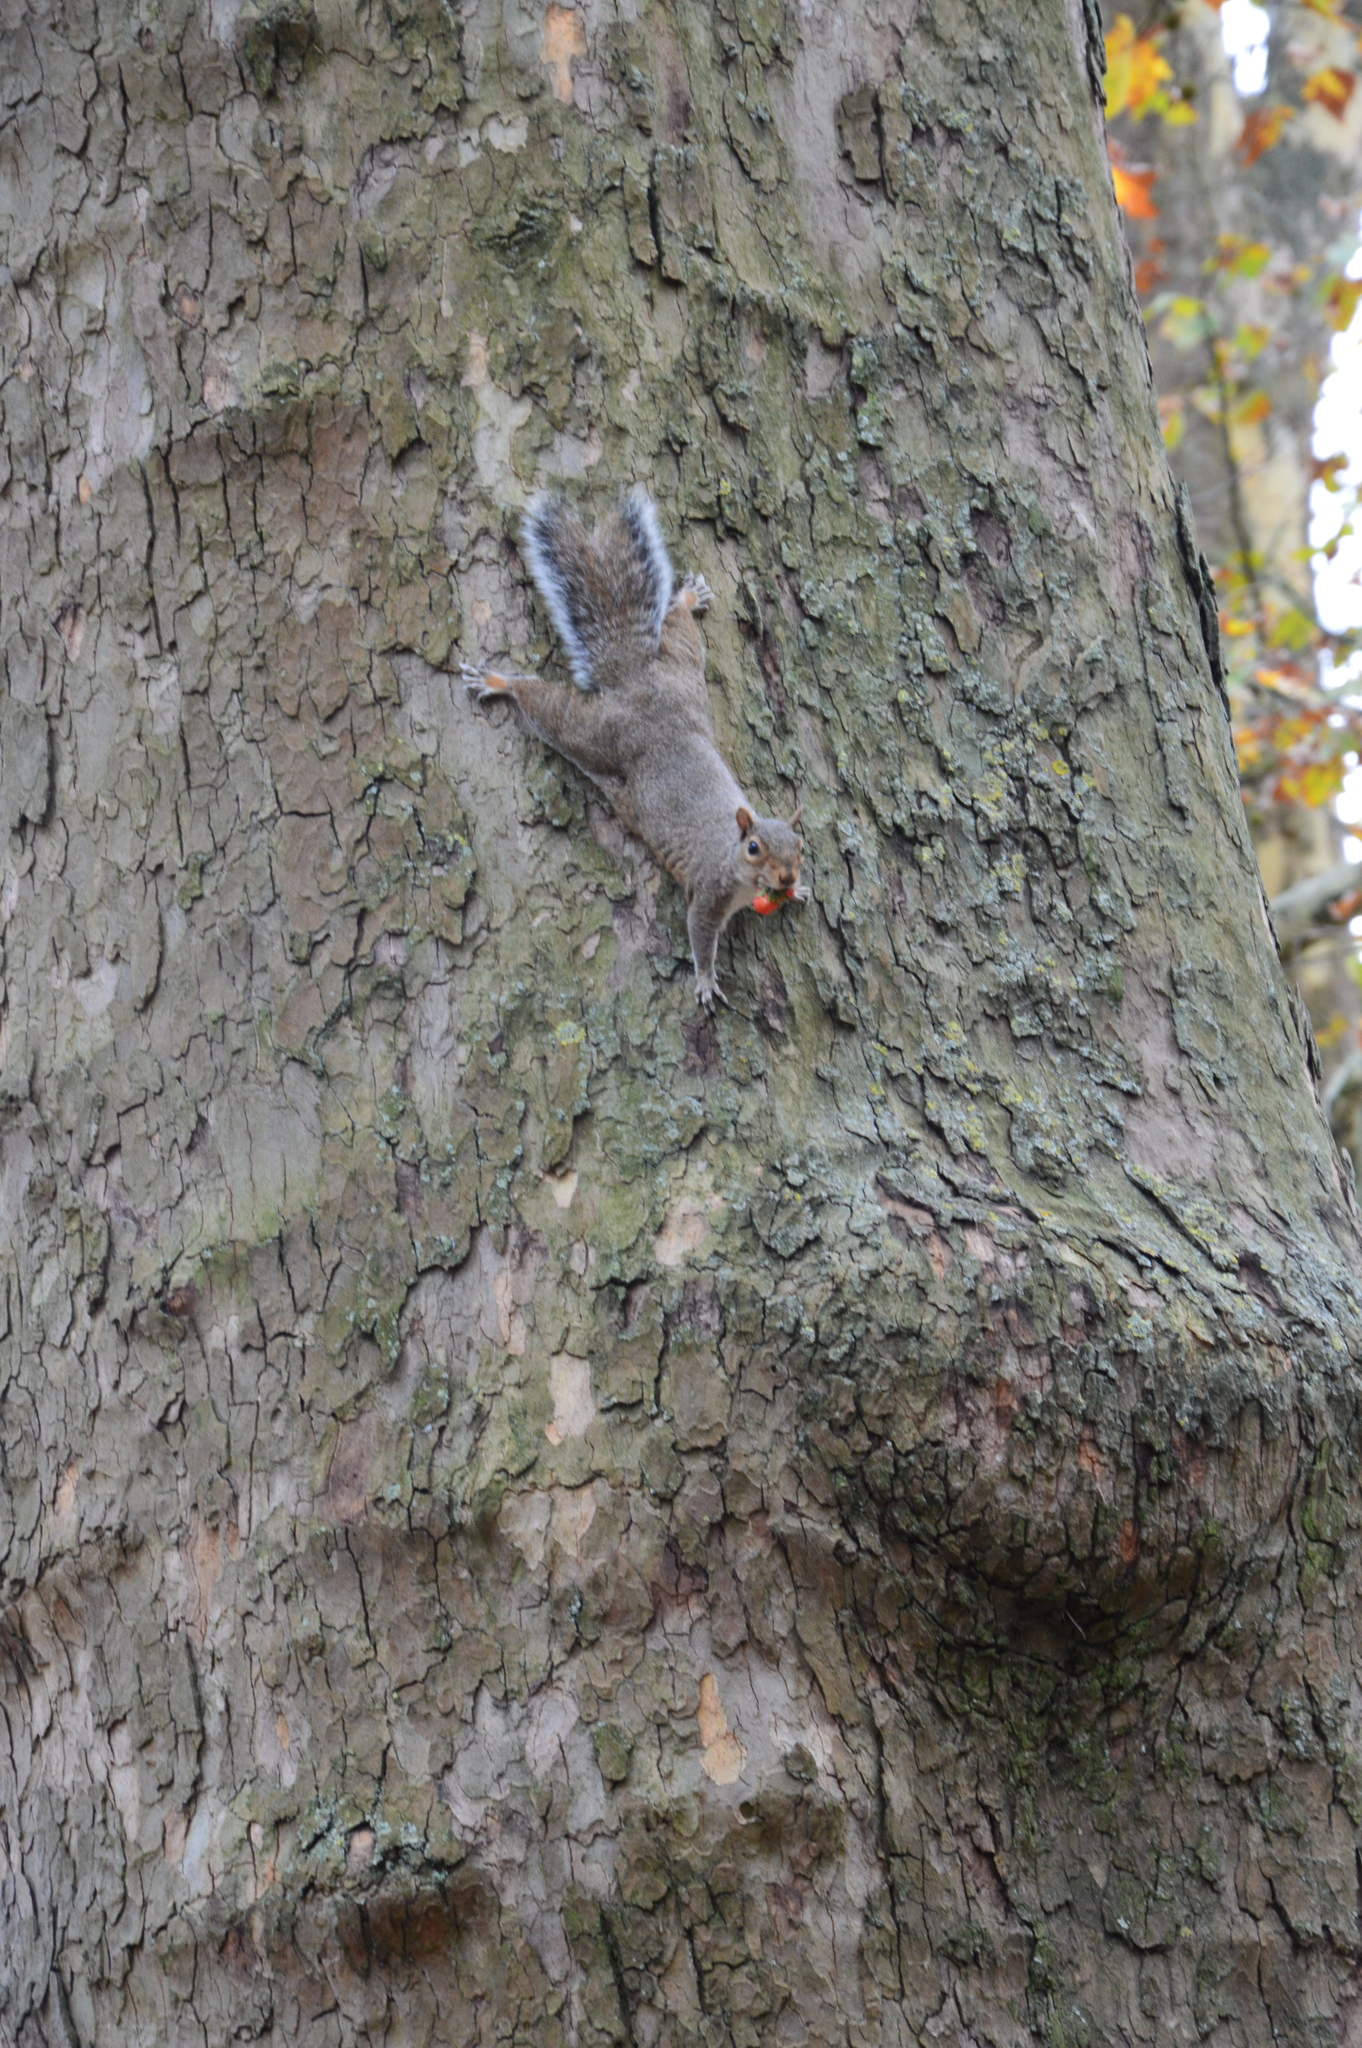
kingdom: Animalia
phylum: Chordata
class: Mammalia
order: Rodentia
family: Sciuridae
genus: Sciurus
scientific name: Sciurus carolinensis
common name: Eastern gray squirrel
